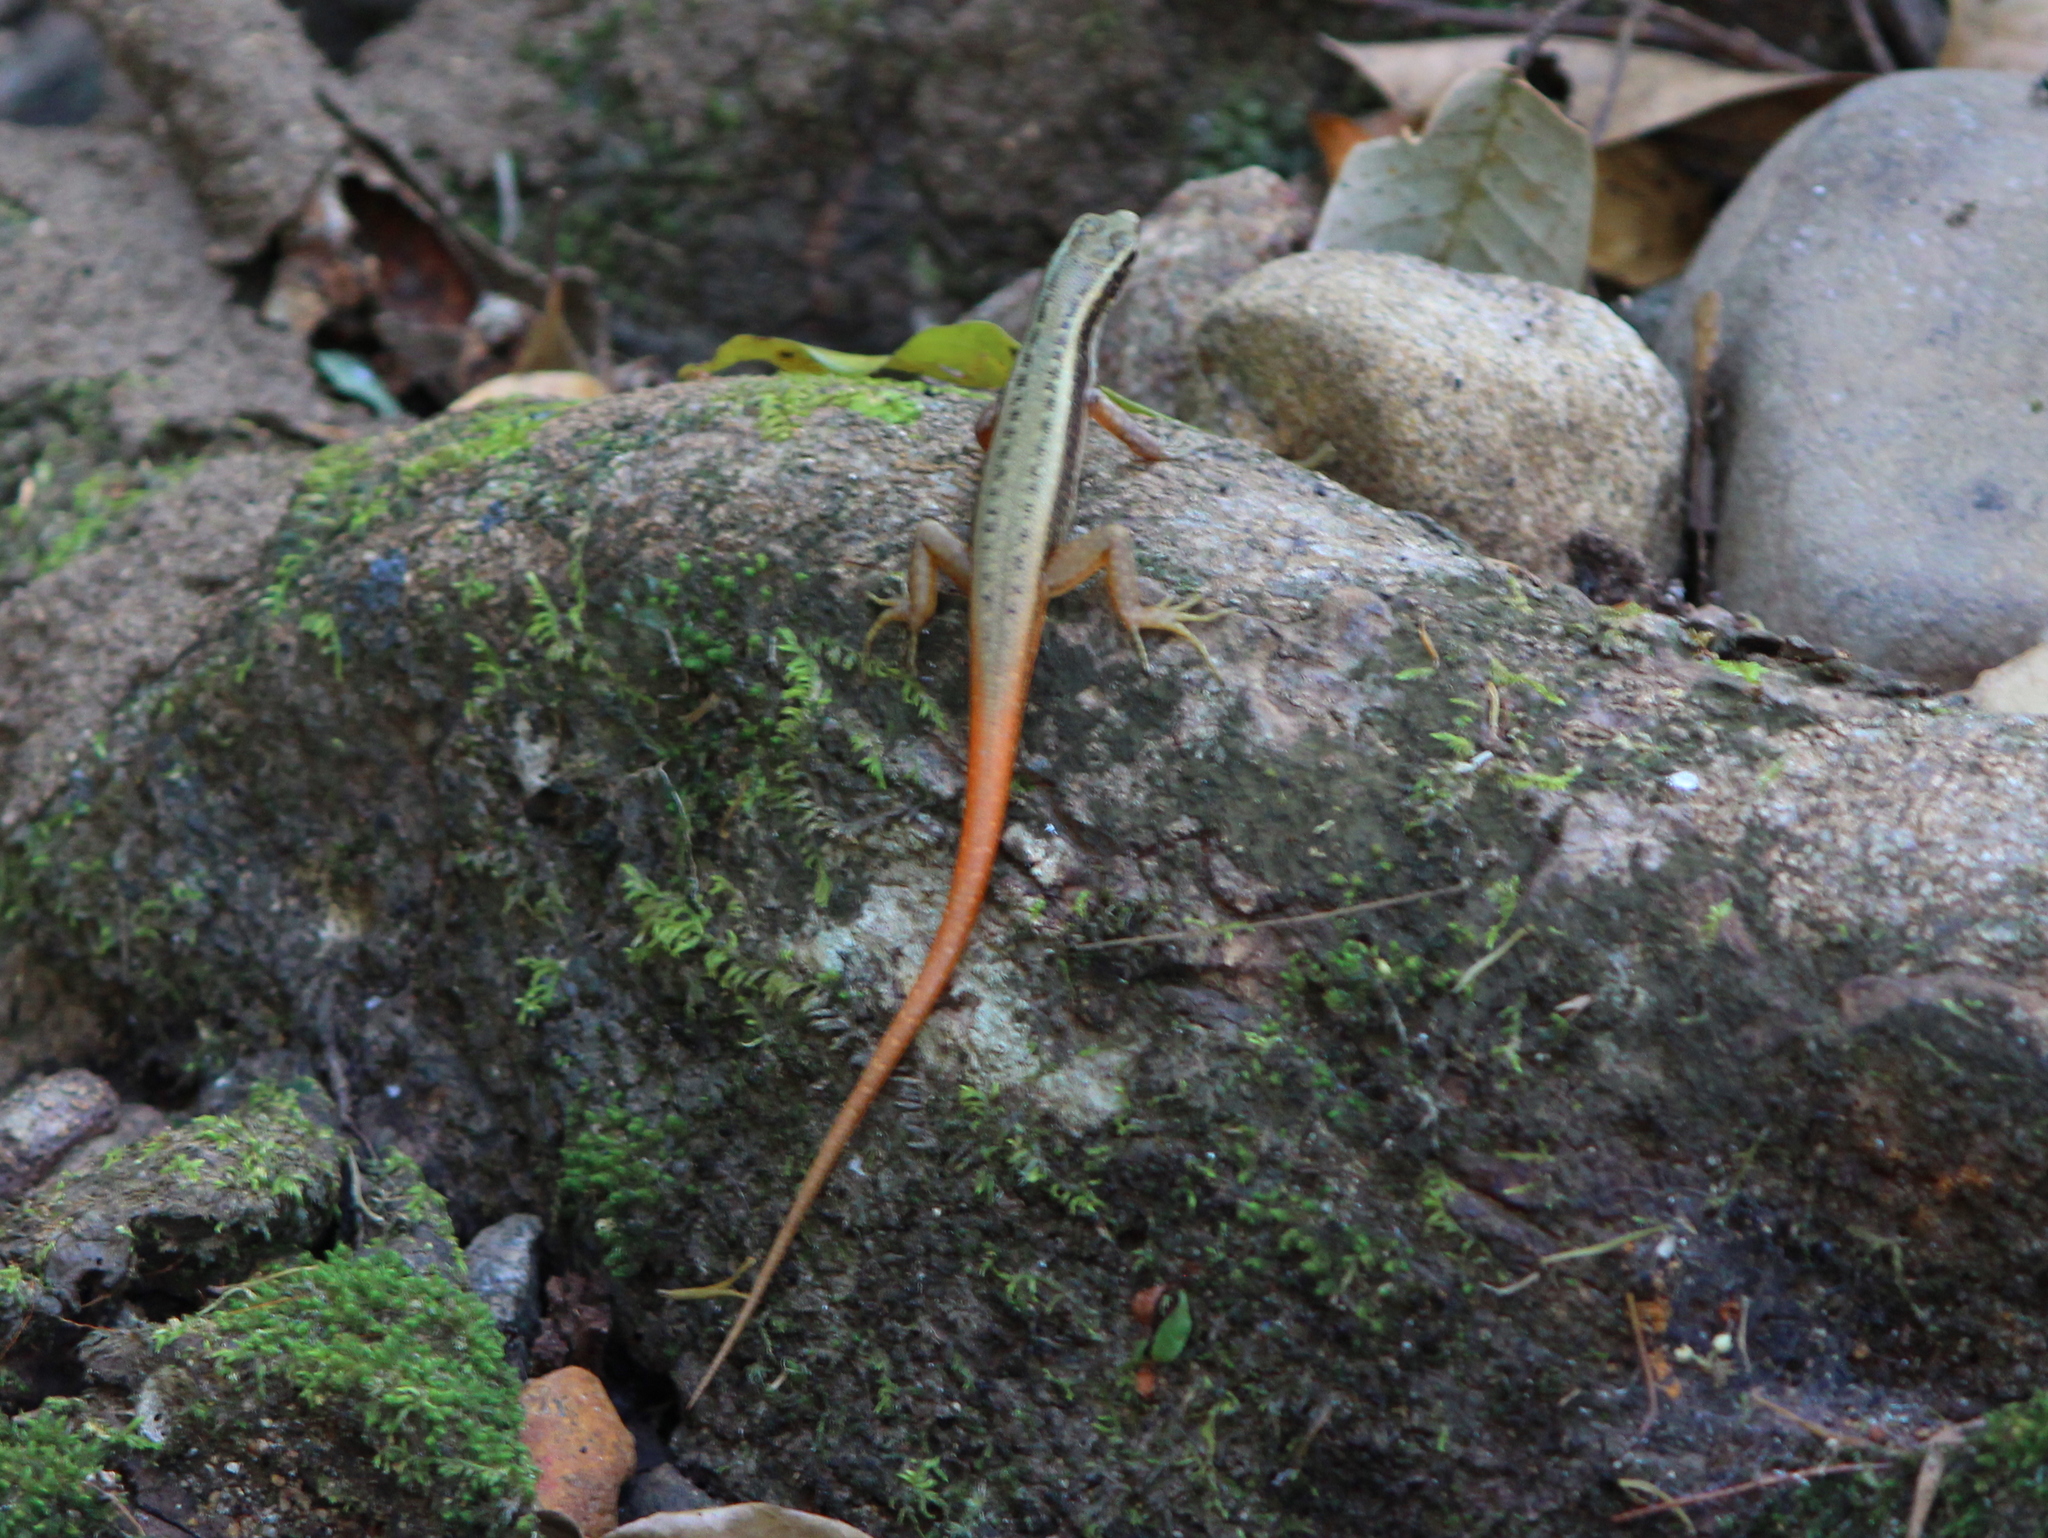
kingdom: Animalia
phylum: Chordata
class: Squamata
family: Scincidae
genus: Sphenomorphus
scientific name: Sphenomorphus dussumieri
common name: Dussumier's forest skink
